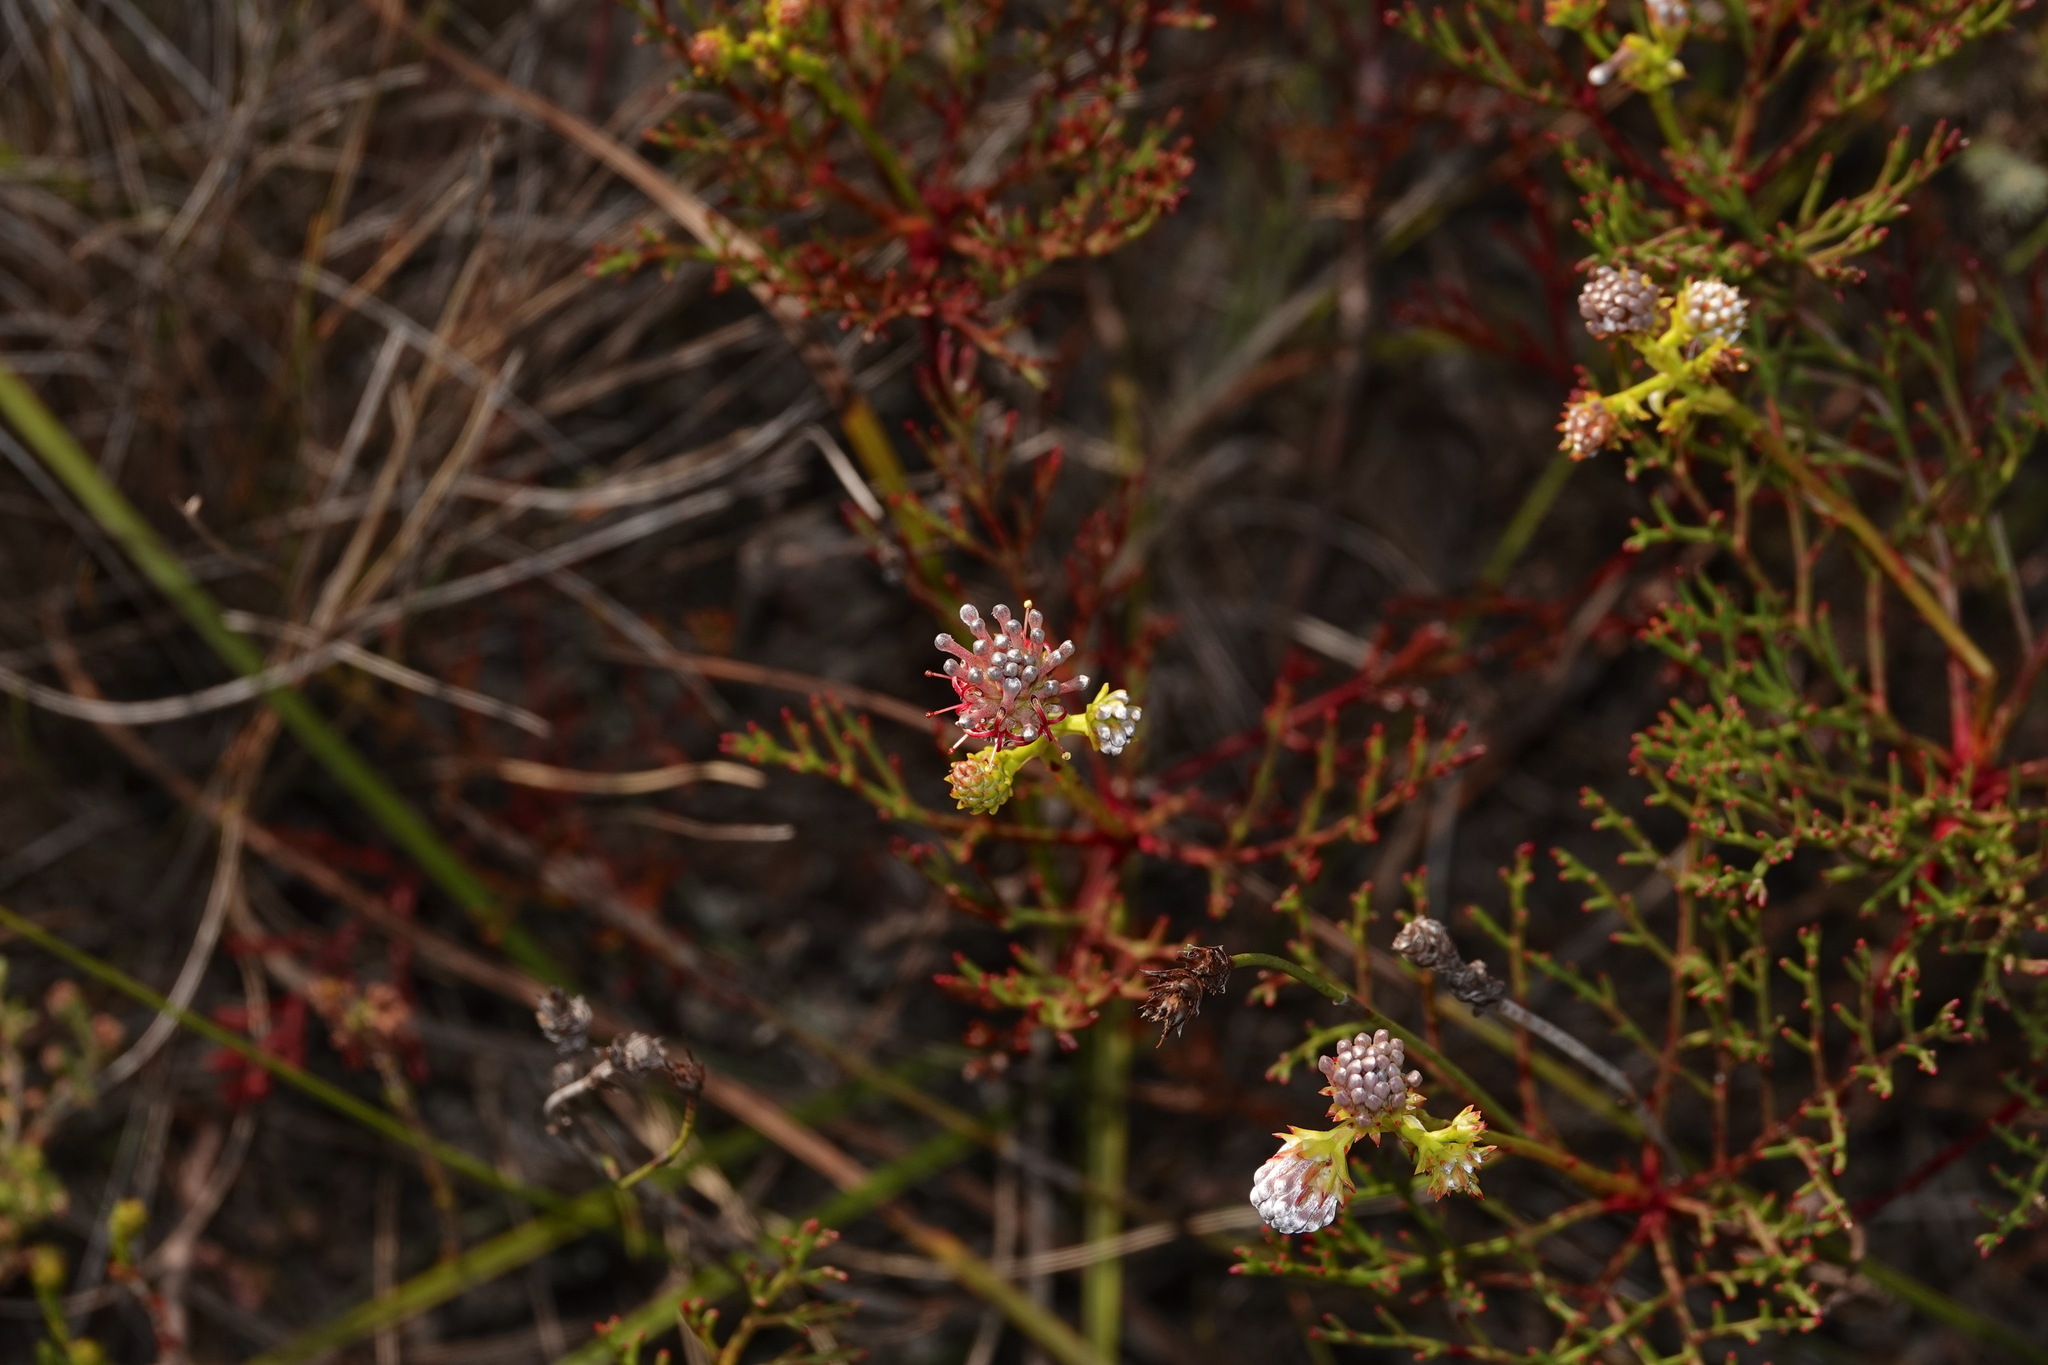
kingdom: Plantae
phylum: Tracheophyta
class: Magnoliopsida
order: Proteales
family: Proteaceae
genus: Serruria
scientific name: Serruria elongata
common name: Long-stalk spiderhead
